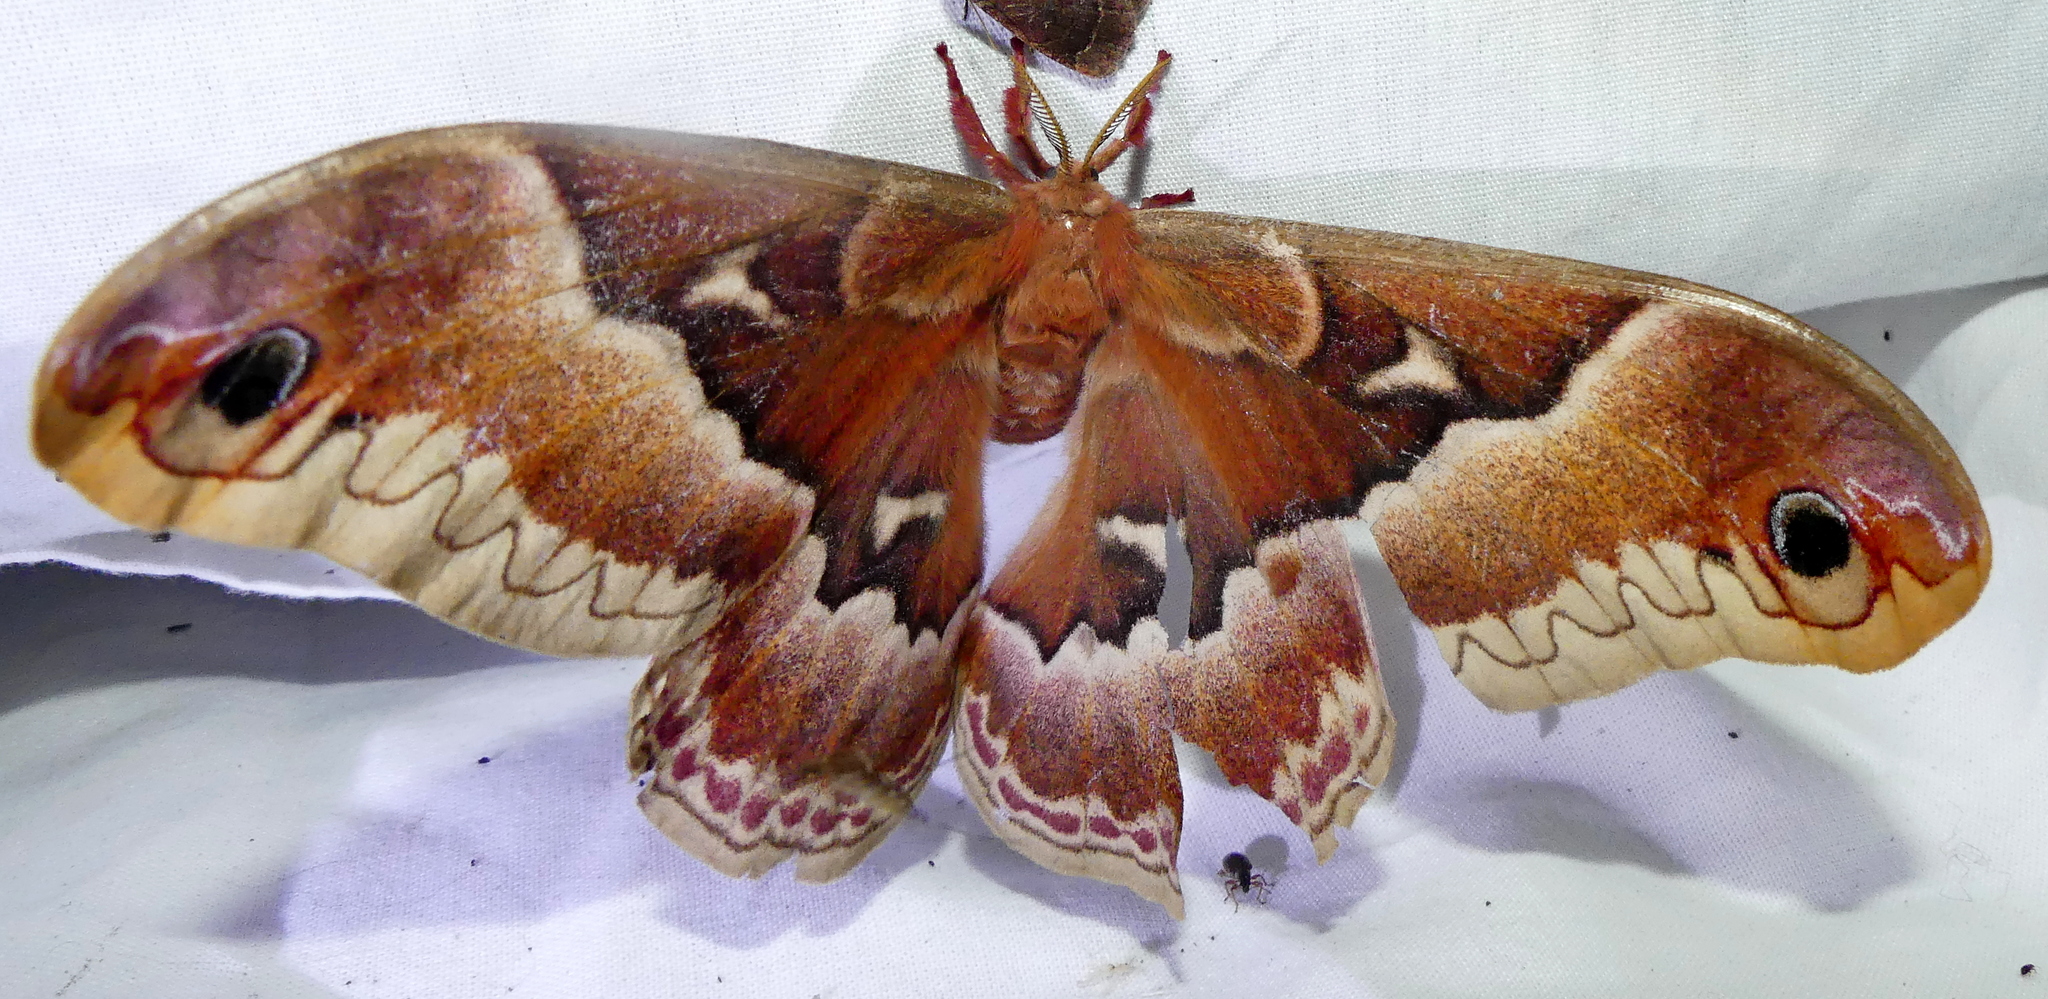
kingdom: Animalia
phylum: Arthropoda
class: Insecta
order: Lepidoptera
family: Saturniidae
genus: Callosamia
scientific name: Callosamia promethea
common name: Promethea silkmoth
